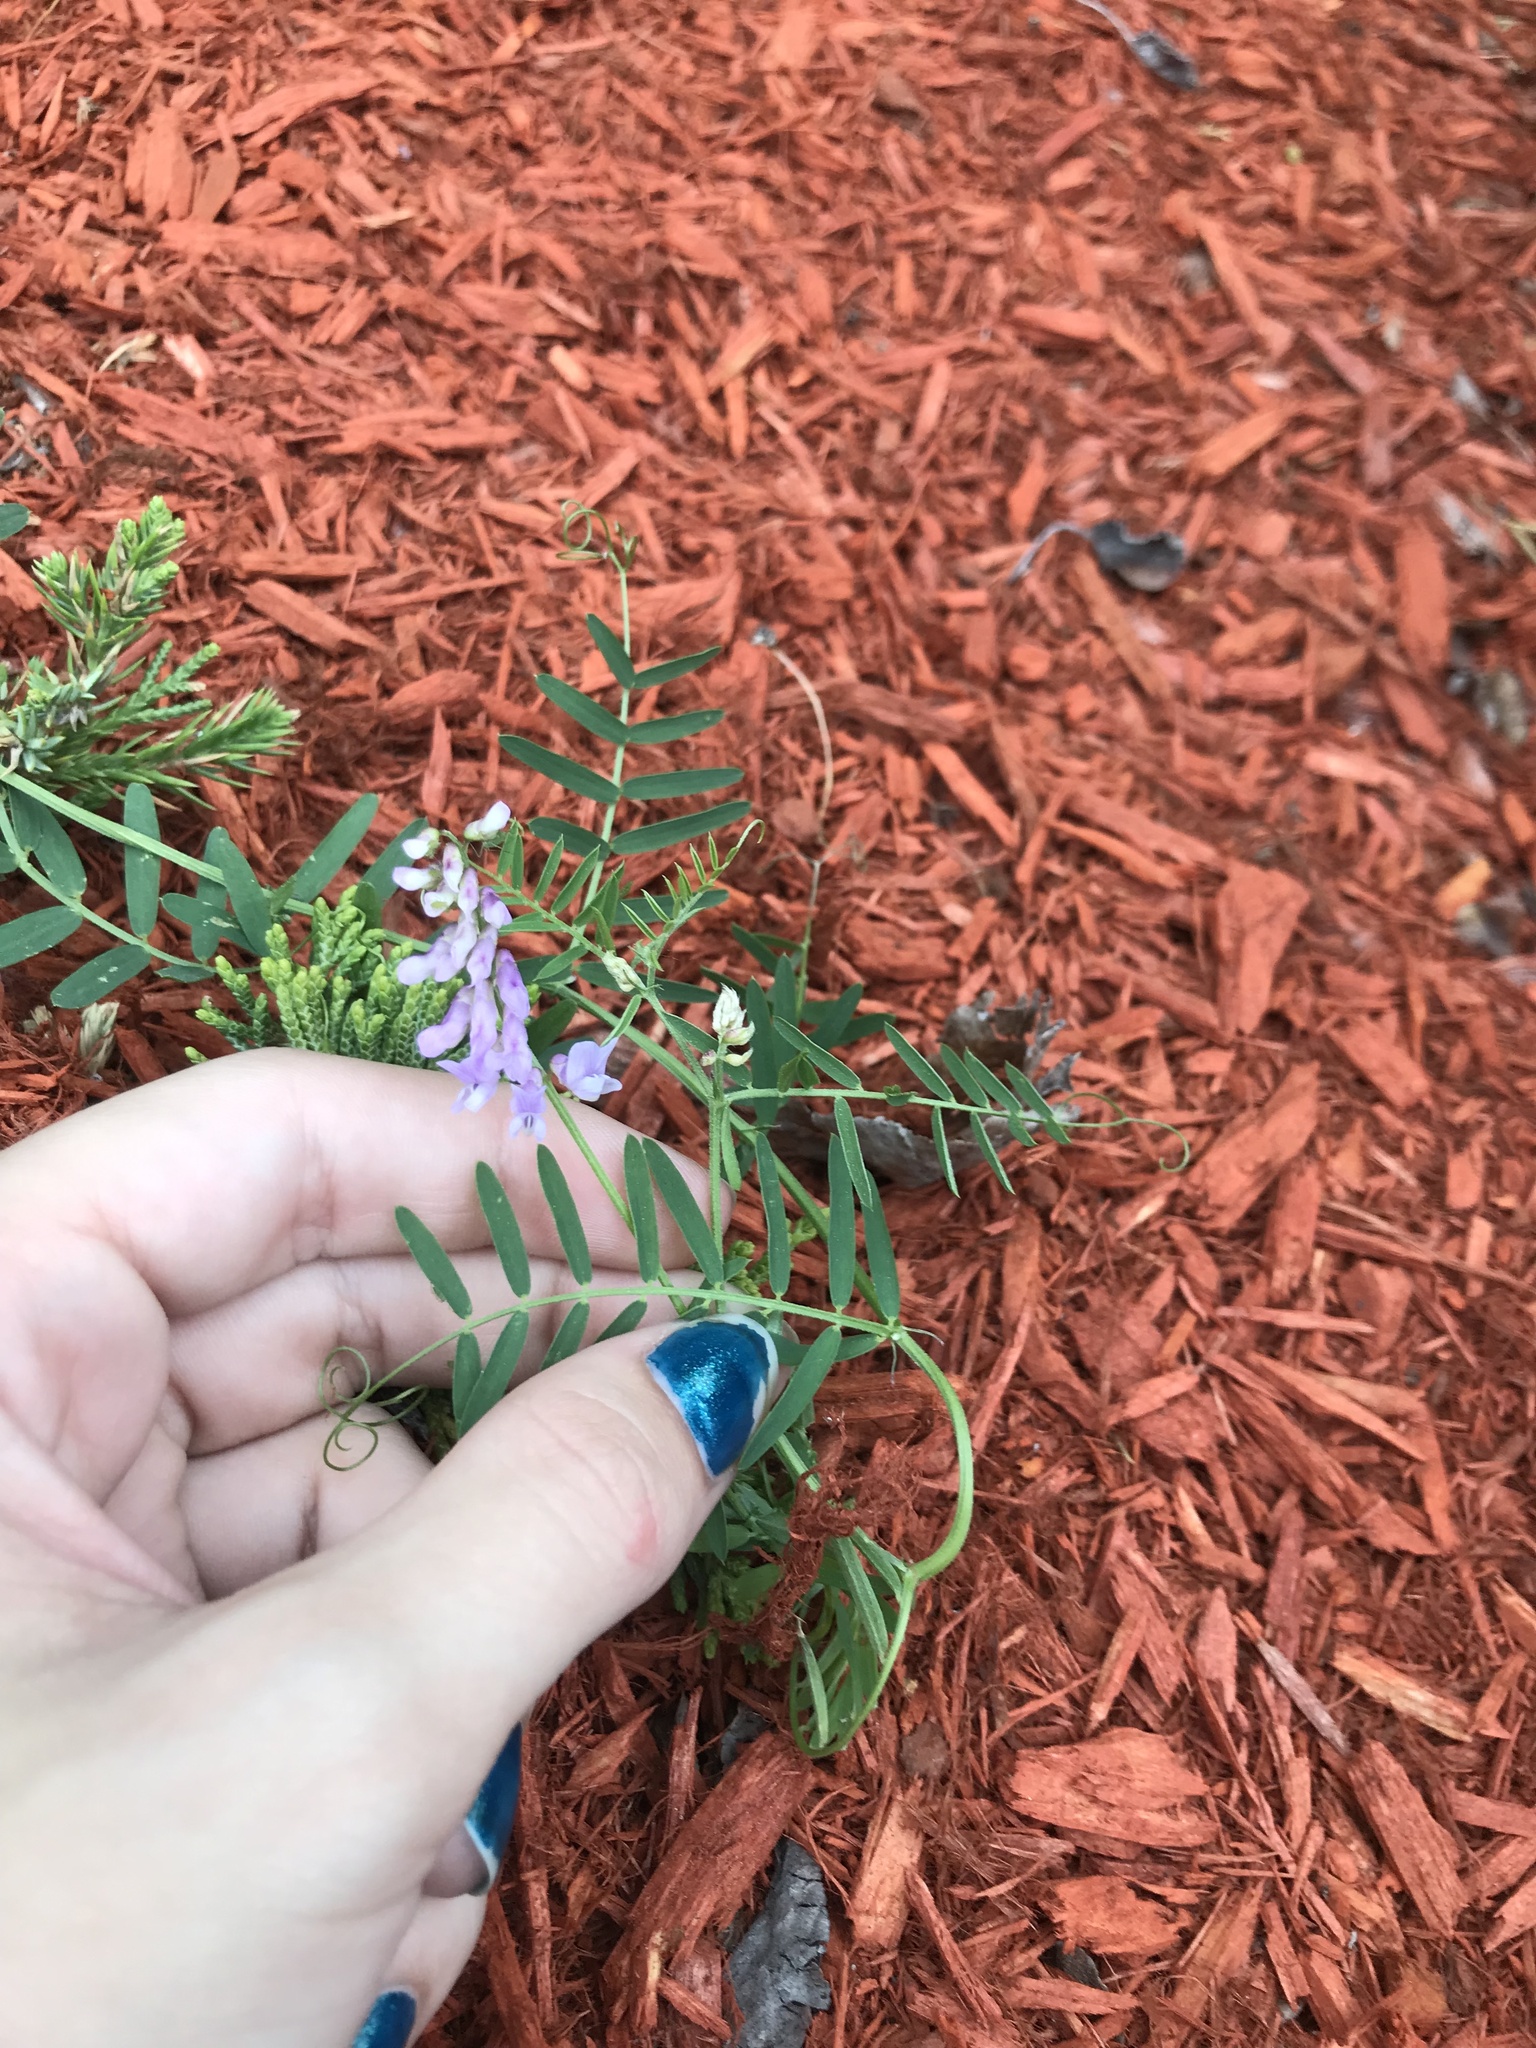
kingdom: Plantae
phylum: Tracheophyta
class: Magnoliopsida
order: Fabales
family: Fabaceae
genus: Vicia
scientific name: Vicia cracca
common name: Bird vetch
